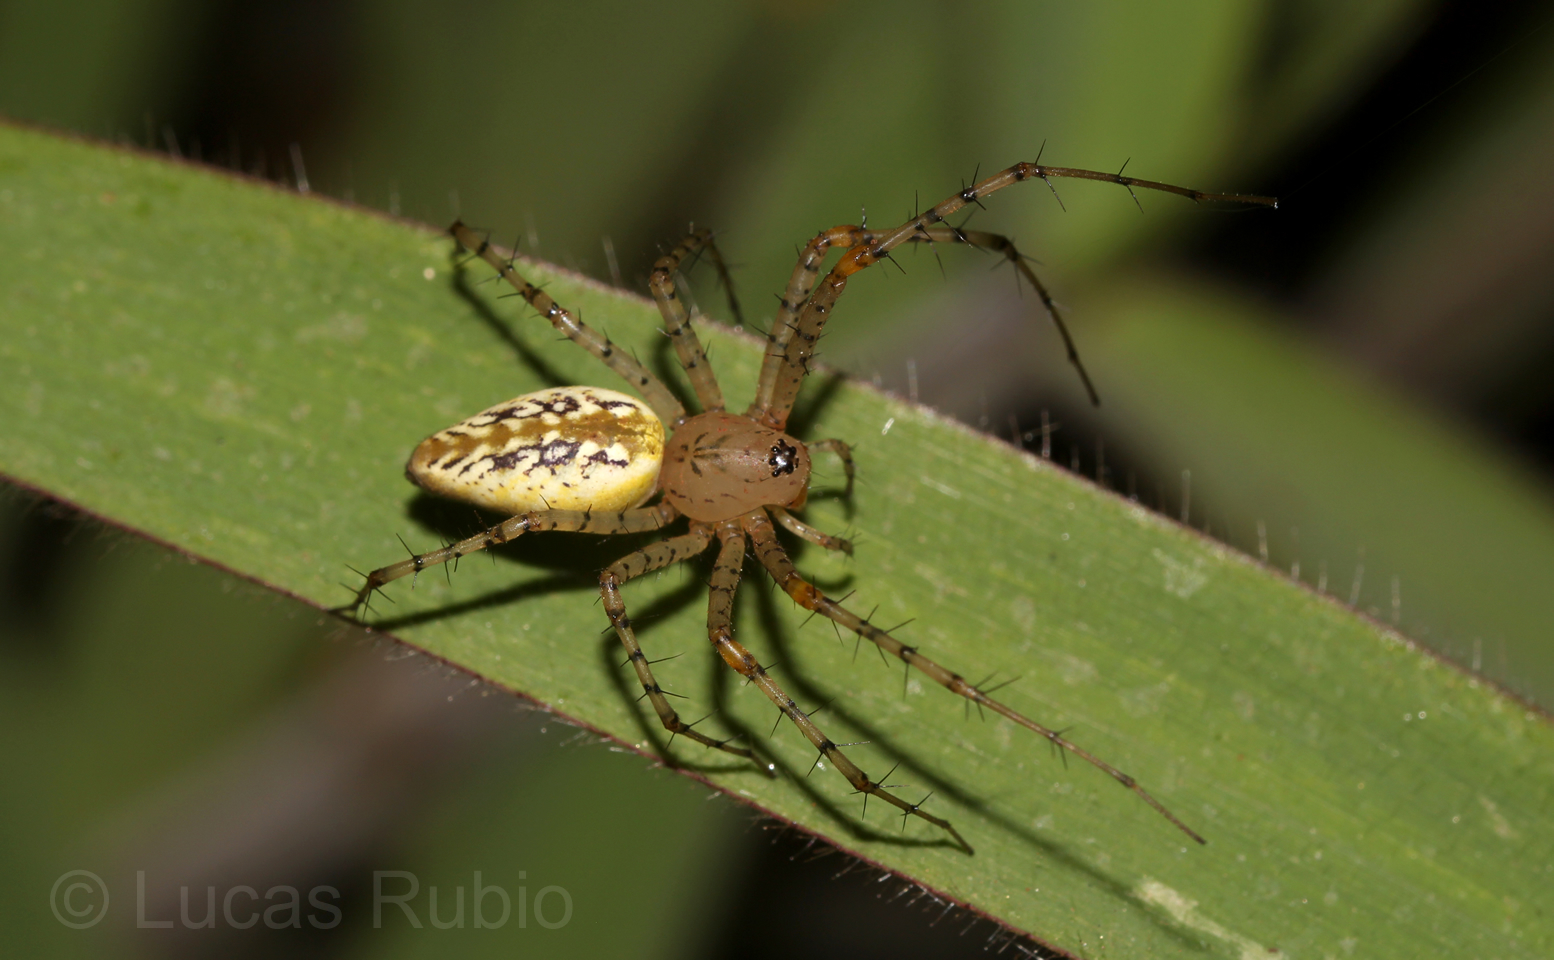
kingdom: Animalia
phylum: Arthropoda
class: Arachnida
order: Araneae
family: Oxyopidae
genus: Peucetia
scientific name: Peucetia flava
